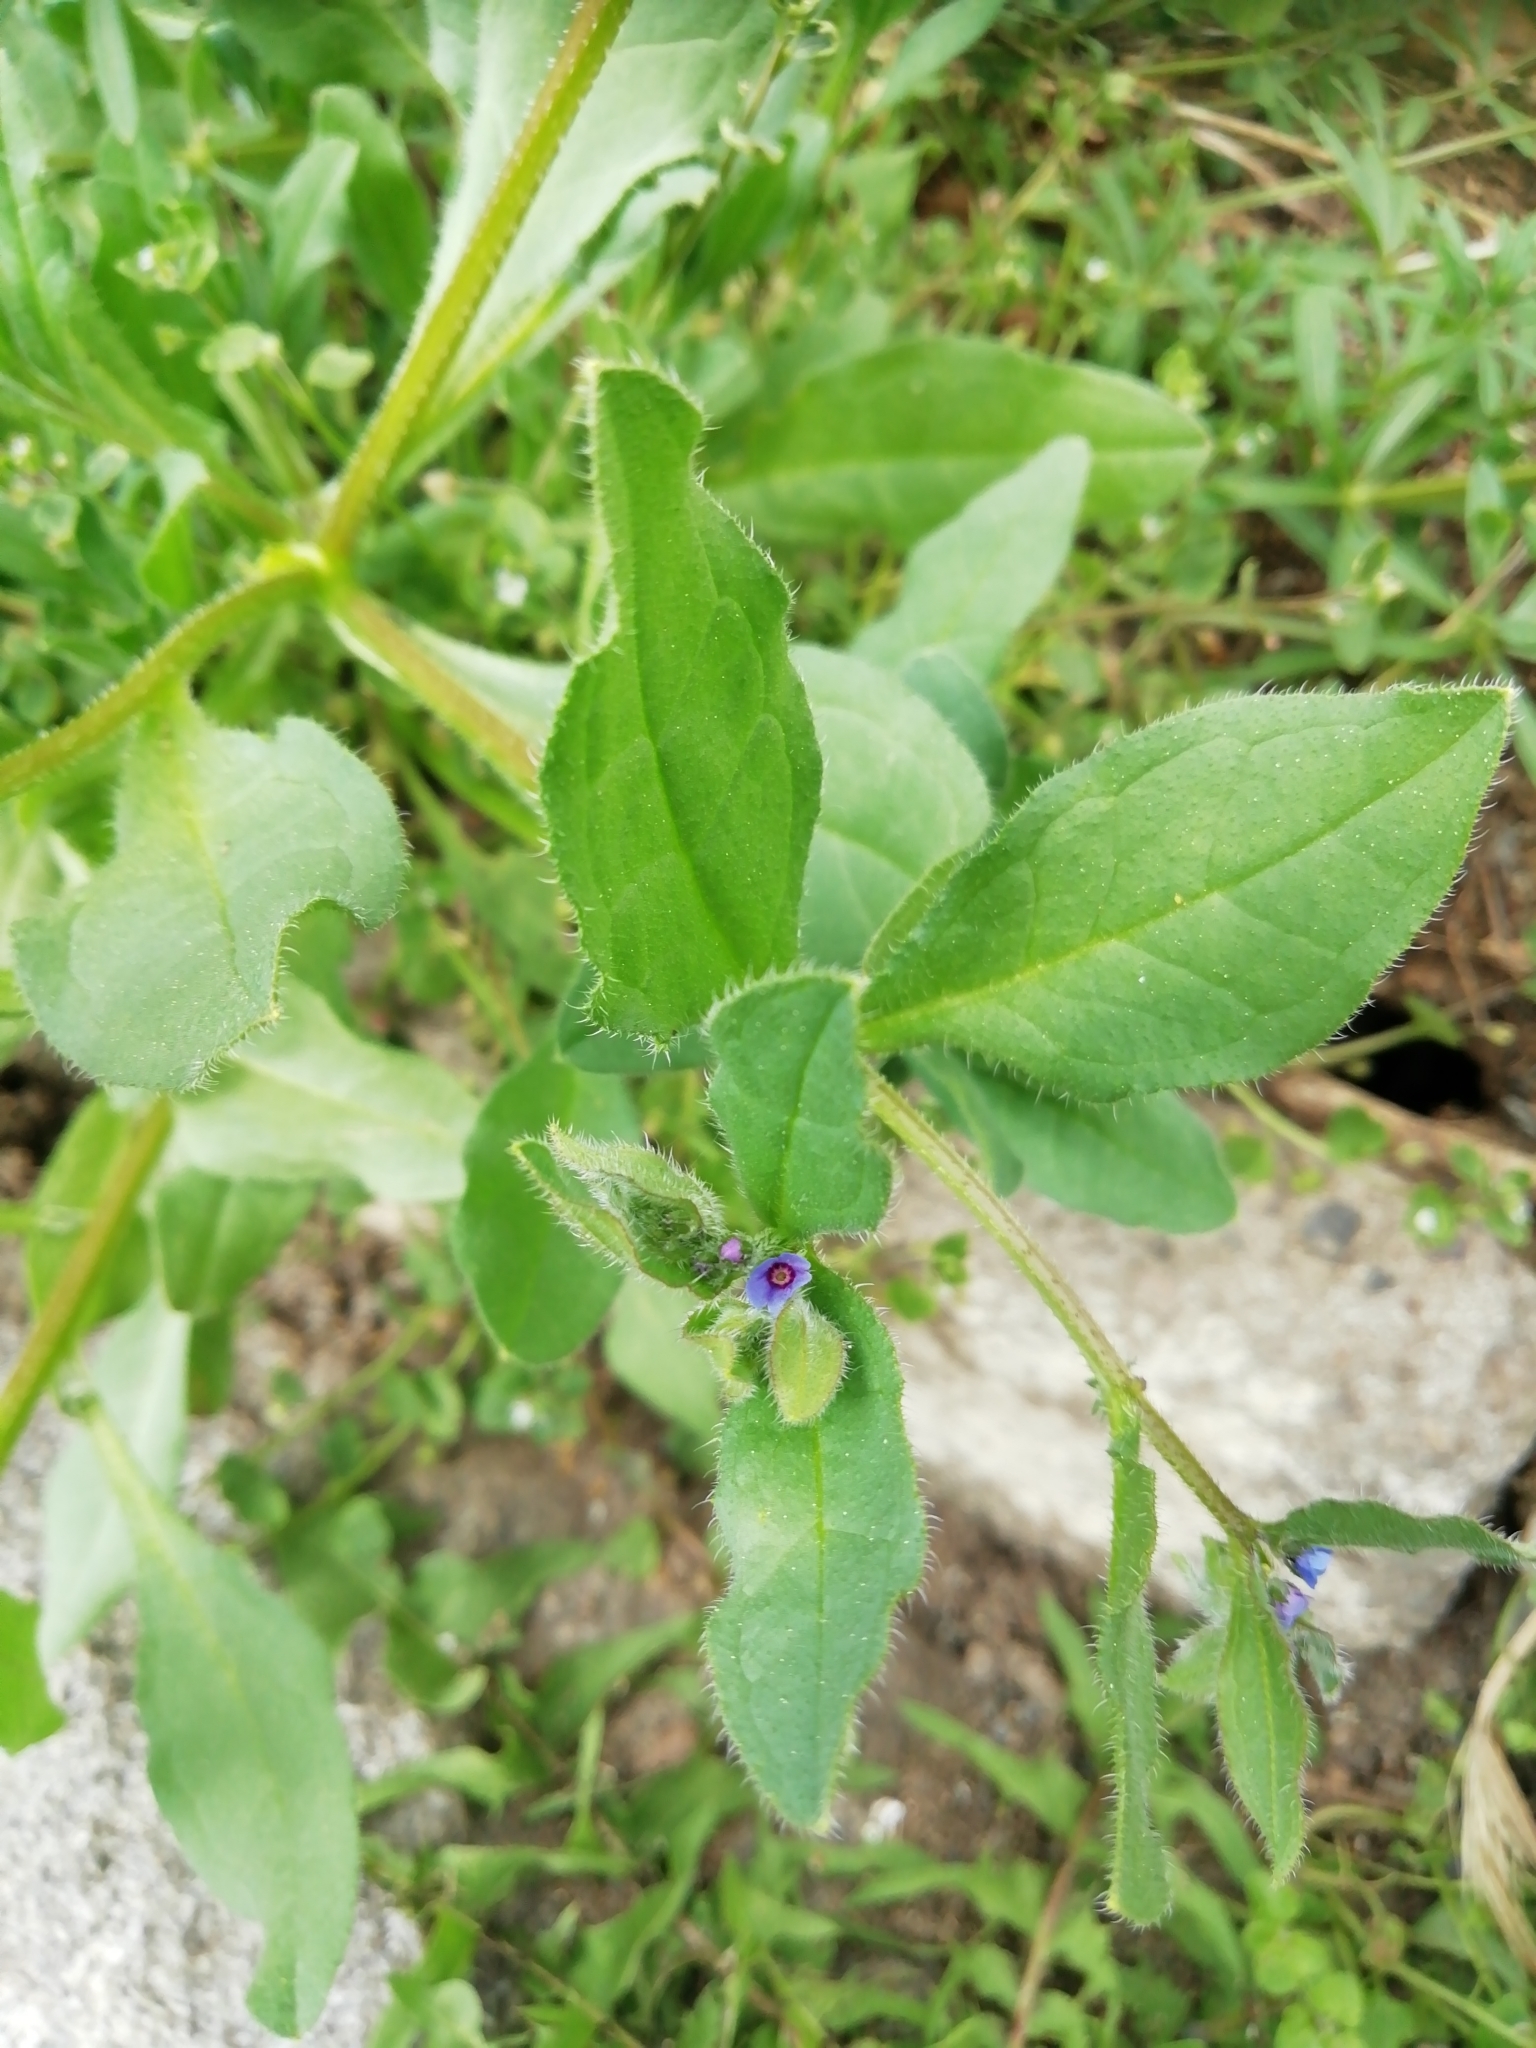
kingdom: Plantae
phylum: Tracheophyta
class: Magnoliopsida
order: Boraginales
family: Boraginaceae
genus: Asperugo
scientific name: Asperugo procumbens
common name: Madwort
